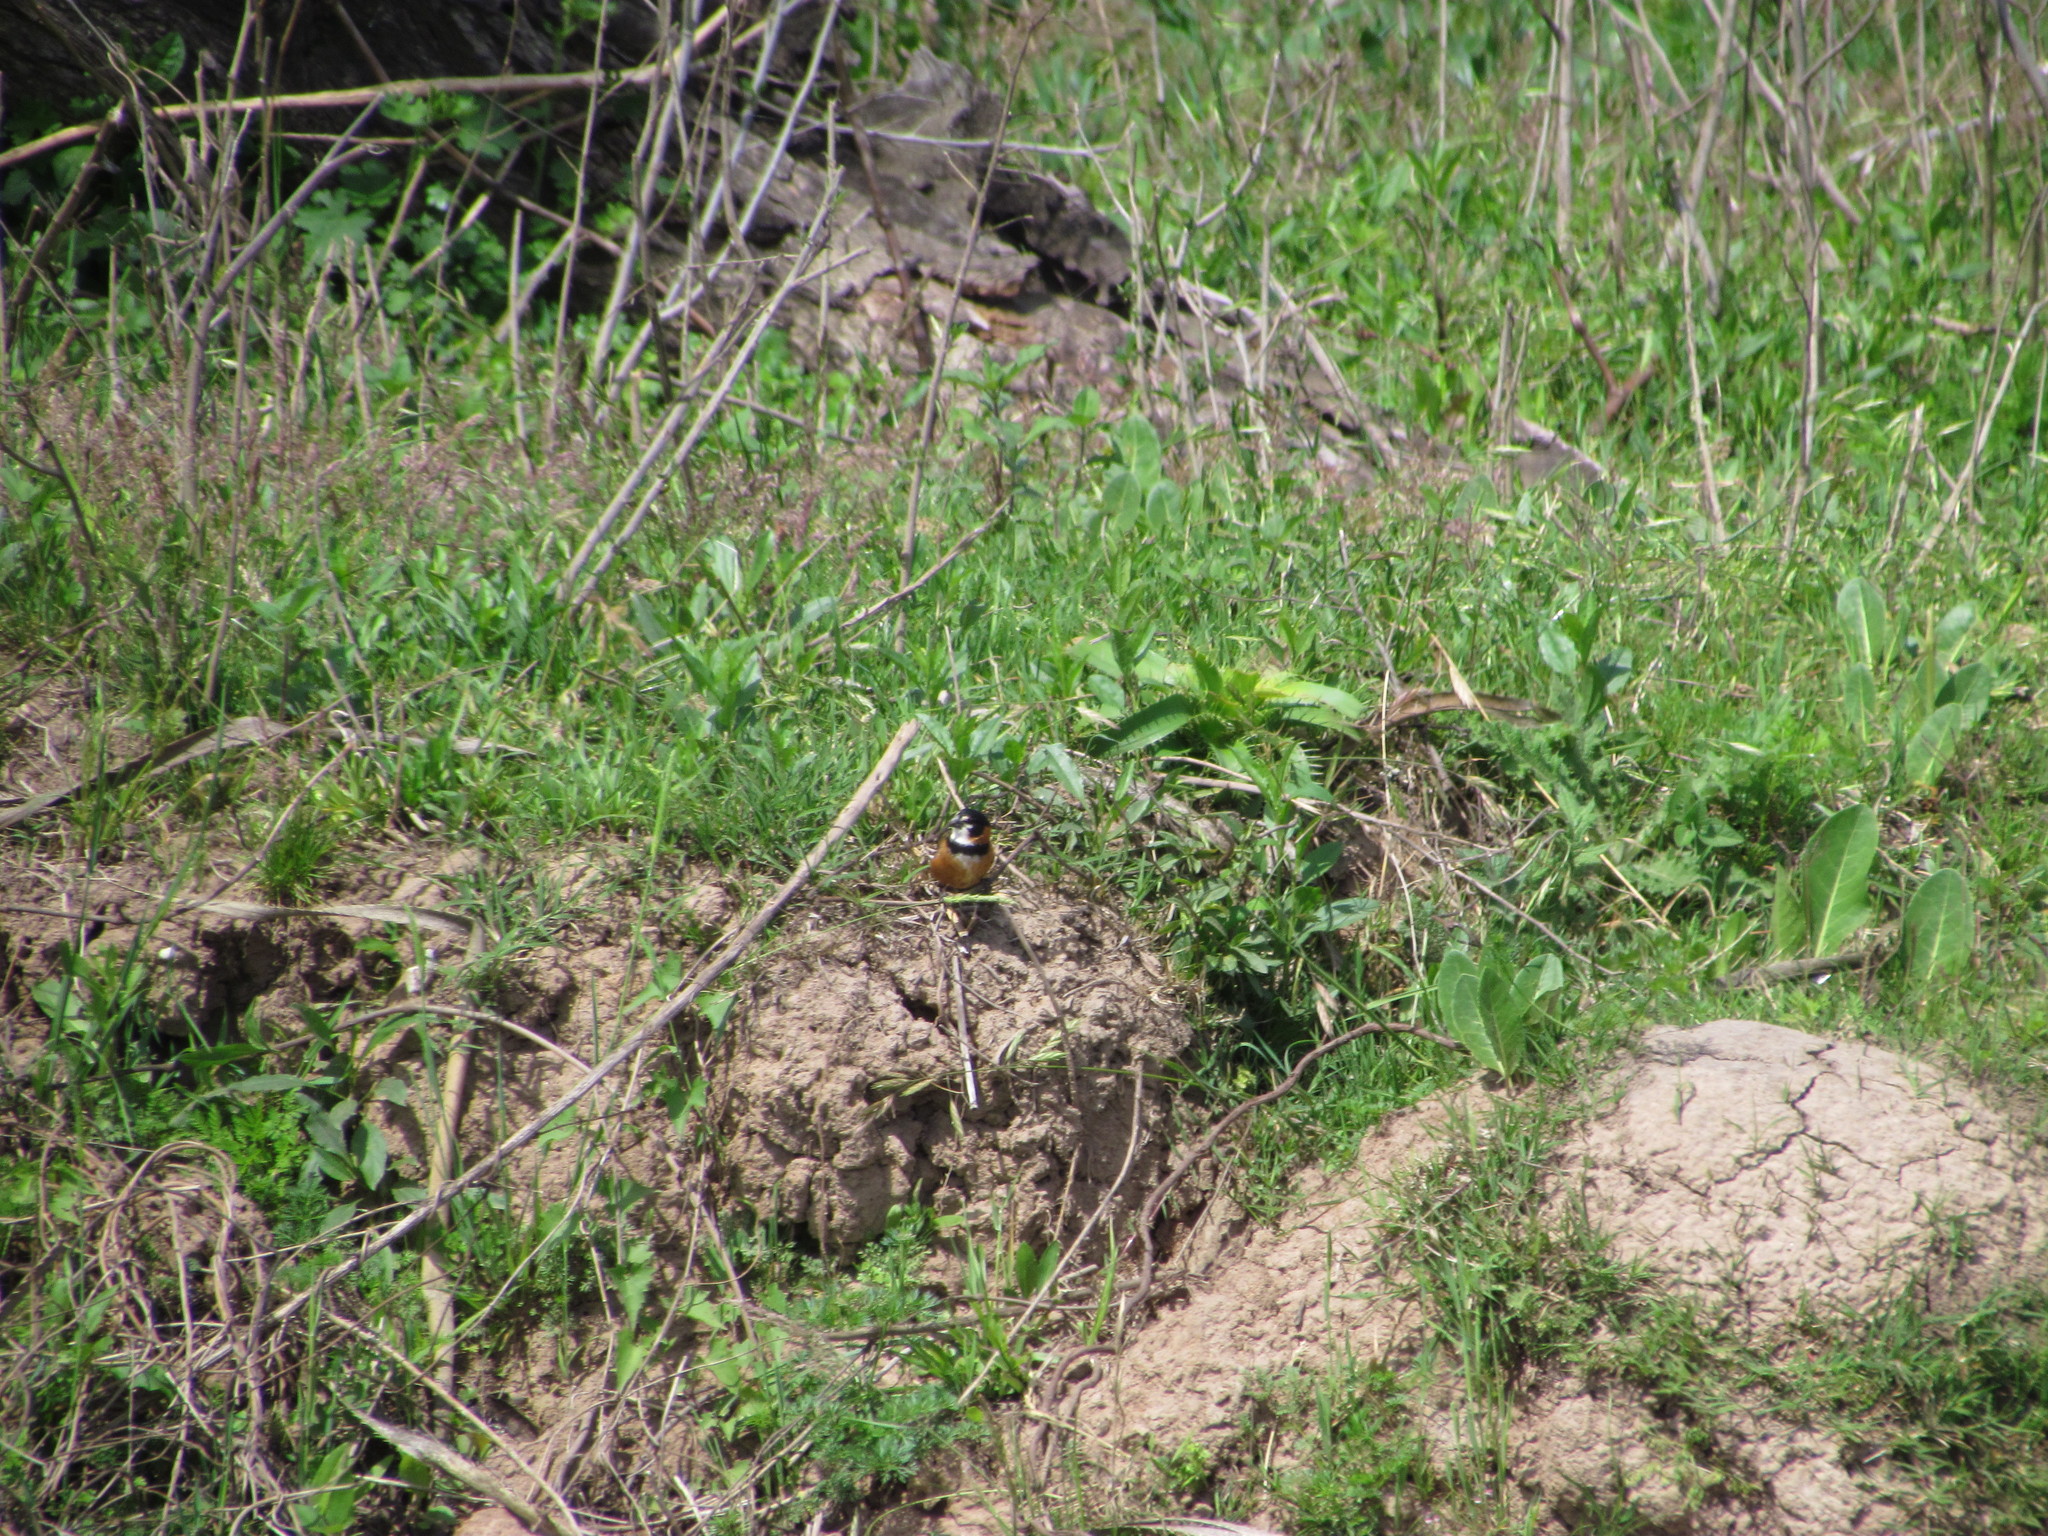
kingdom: Animalia
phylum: Chordata
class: Aves
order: Passeriformes
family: Thraupidae
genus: Sporophila
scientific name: Sporophila collaris
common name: Rusty-collared seedeater
